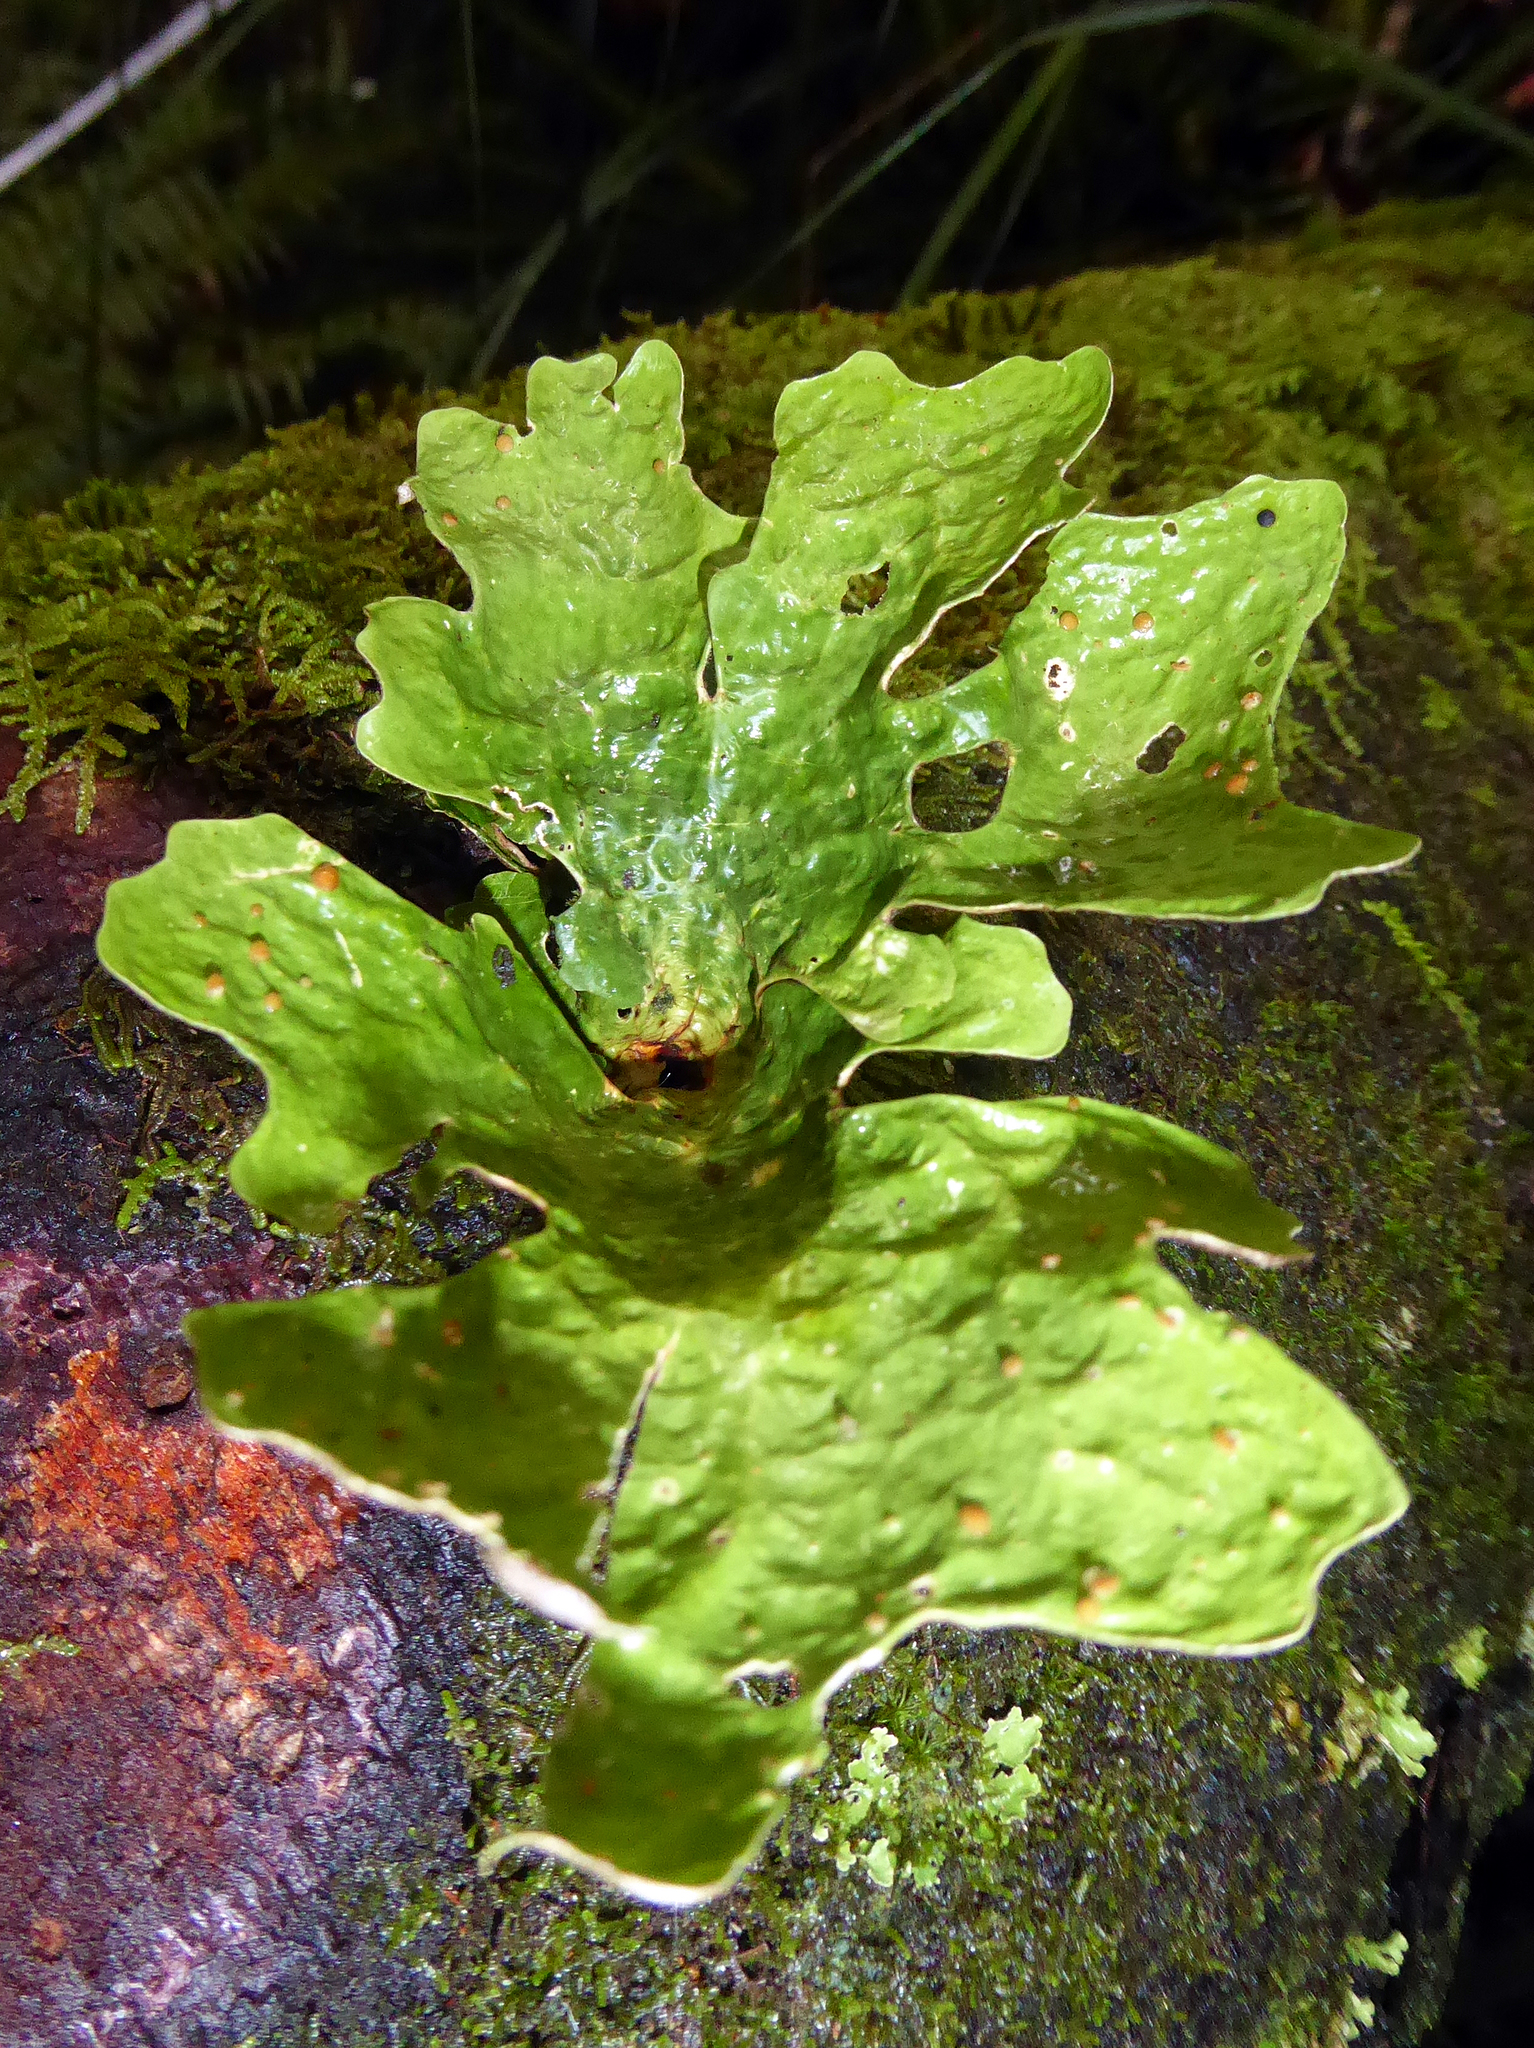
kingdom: Fungi
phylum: Ascomycota
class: Lecanoromycetes
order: Peltigerales
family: Lobariaceae
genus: Sticta
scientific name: Sticta latifrons
